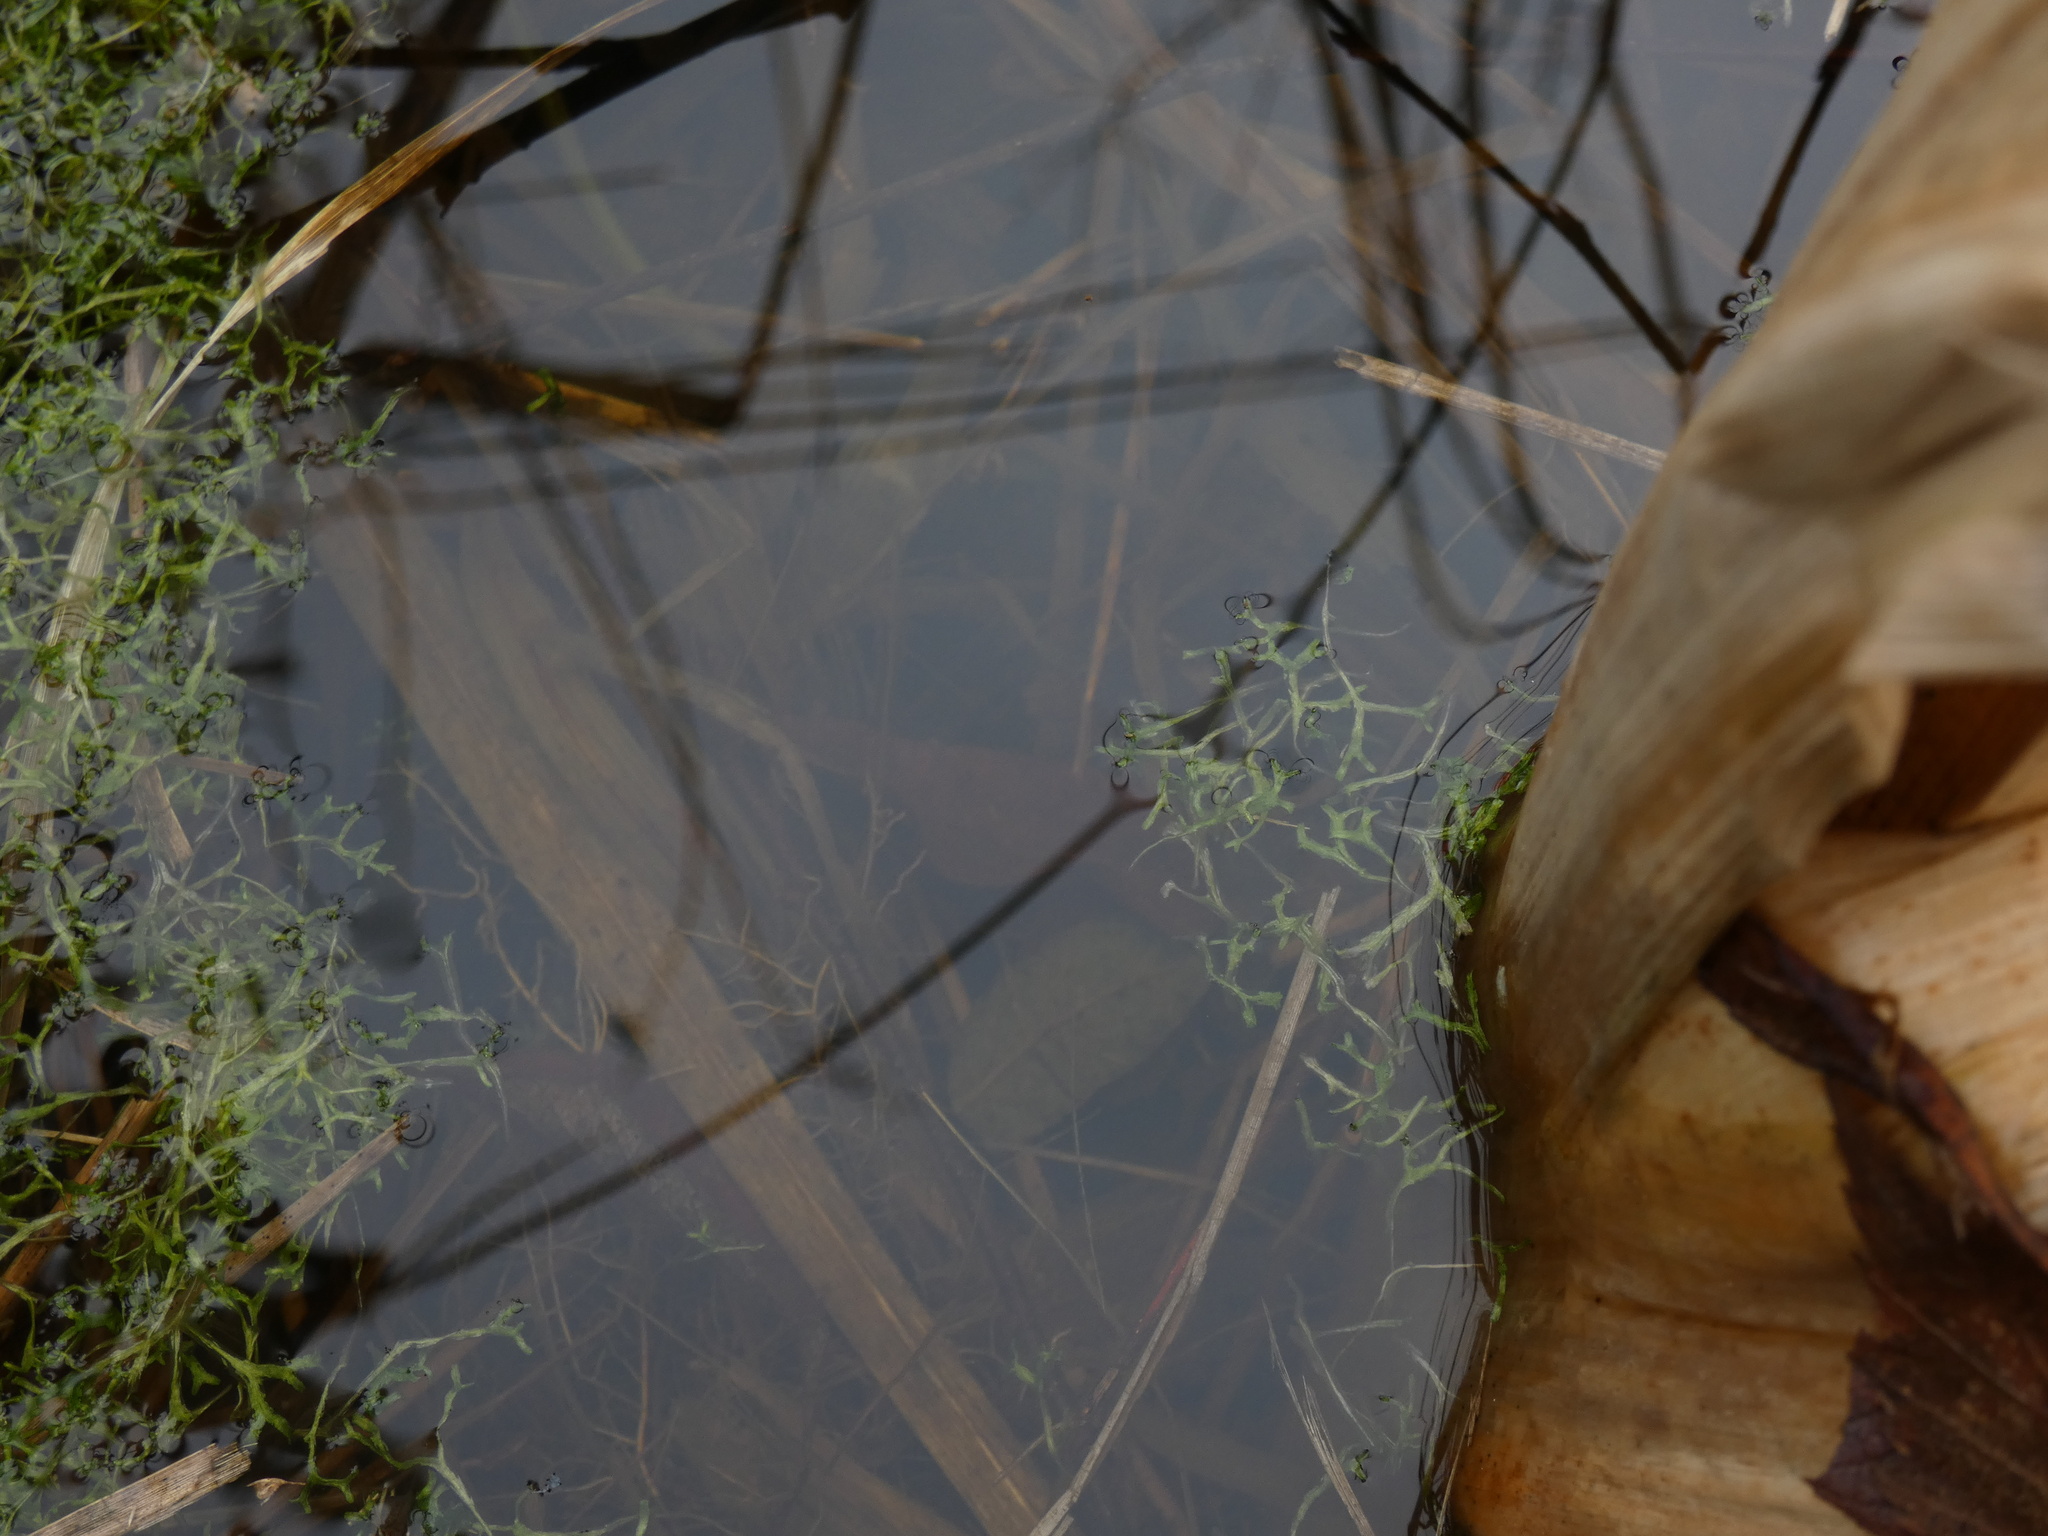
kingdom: Plantae
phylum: Tracheophyta
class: Liliopsida
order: Alismatales
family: Araceae
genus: Lemna
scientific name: Lemna trisulca
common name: Ivy-leaved duckweed
